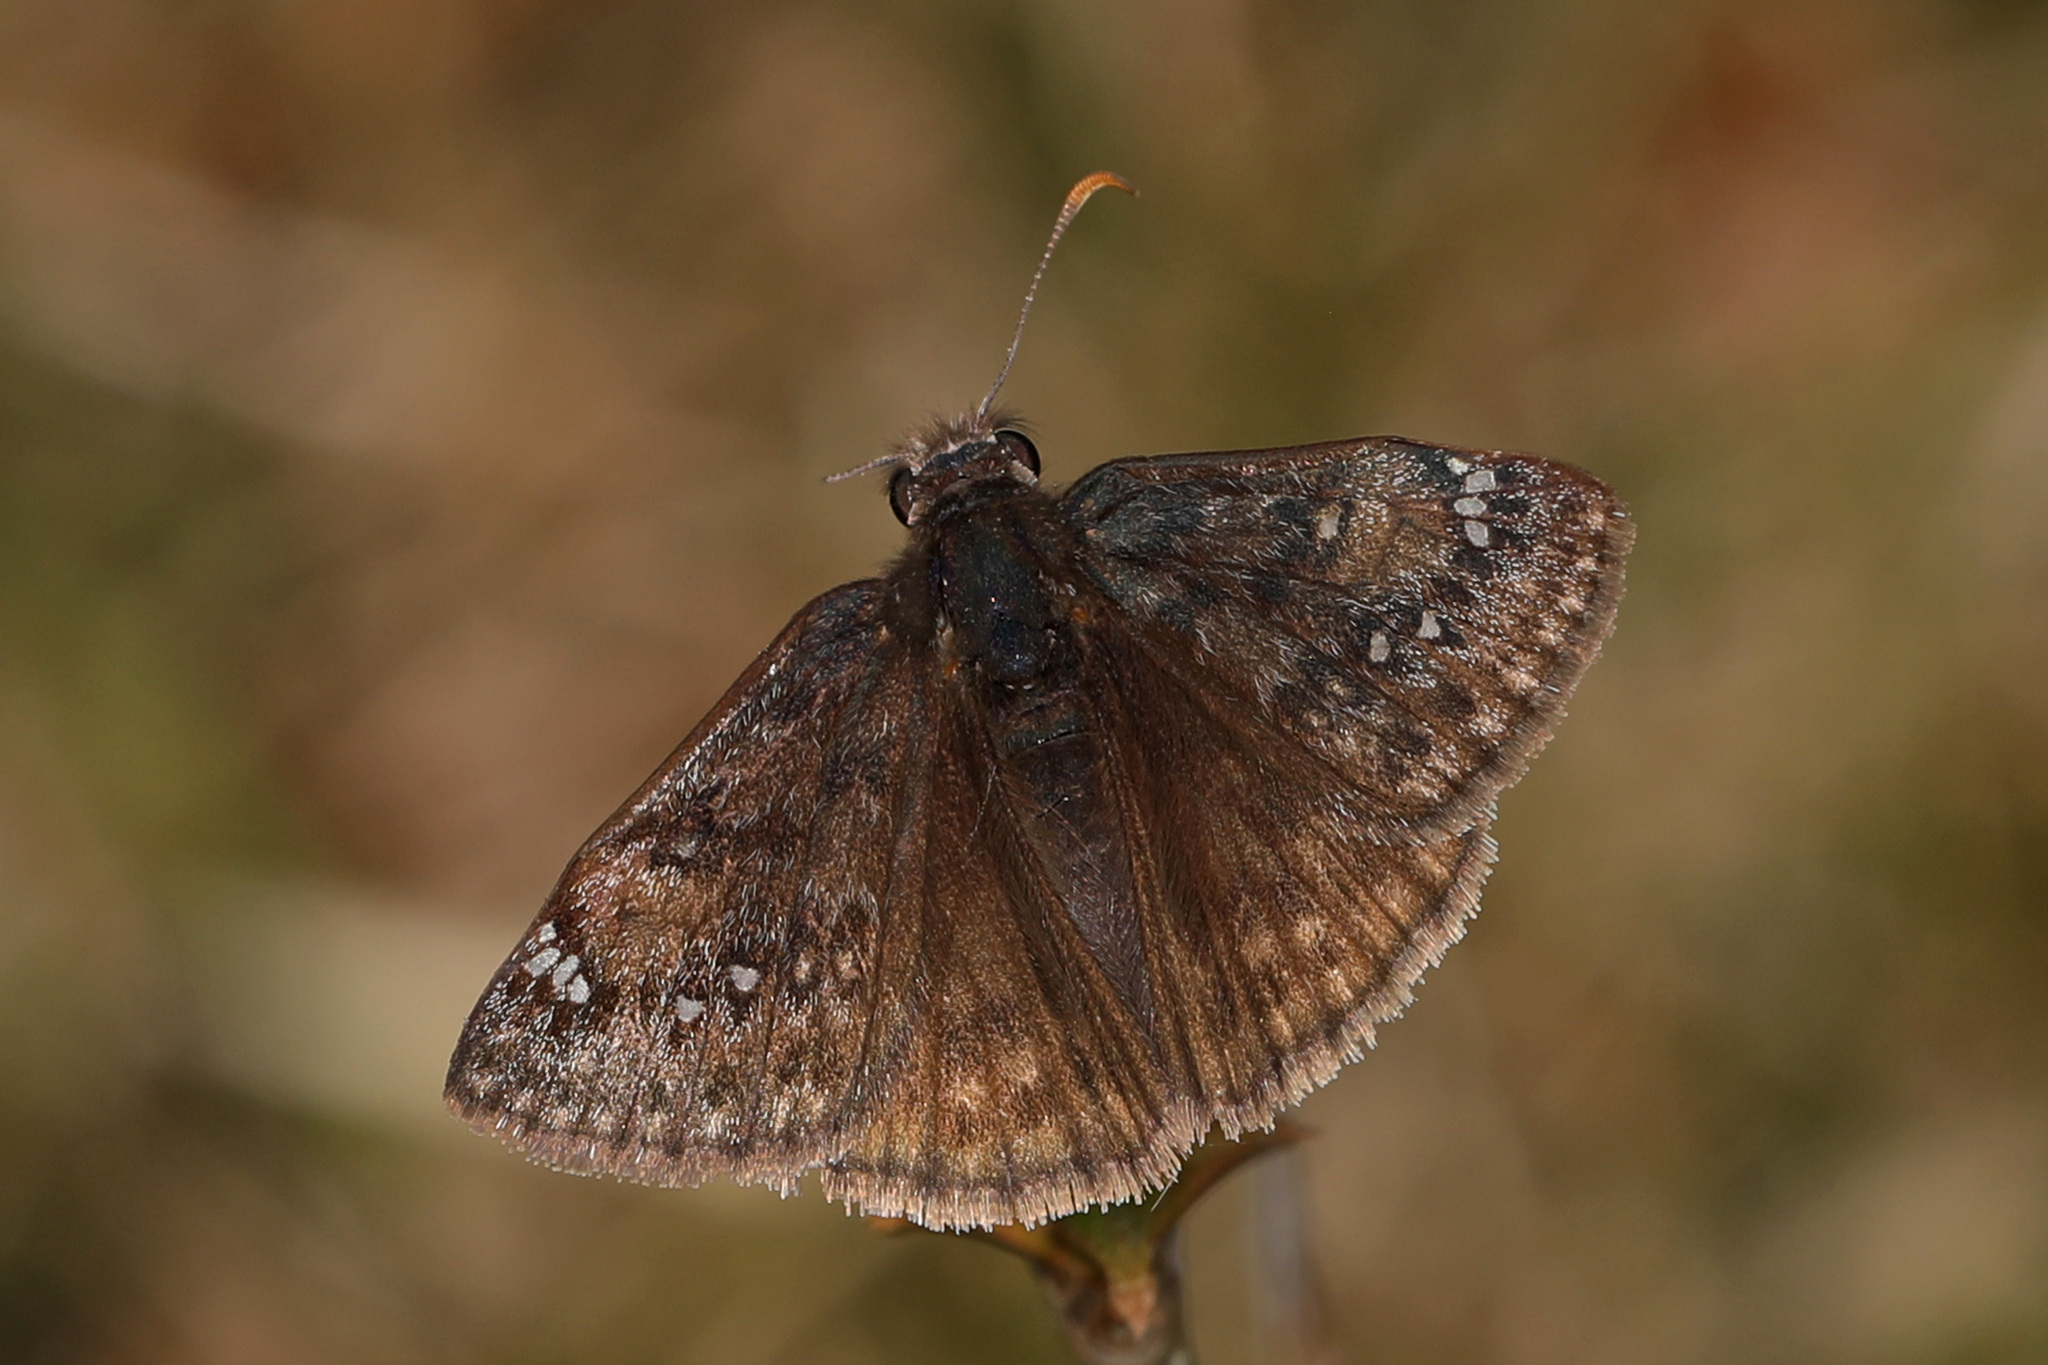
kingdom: Animalia
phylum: Arthropoda
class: Insecta
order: Lepidoptera
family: Hesperiidae
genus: Erynnis
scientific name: Erynnis juvenalis
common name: Juvenal's duskywing
